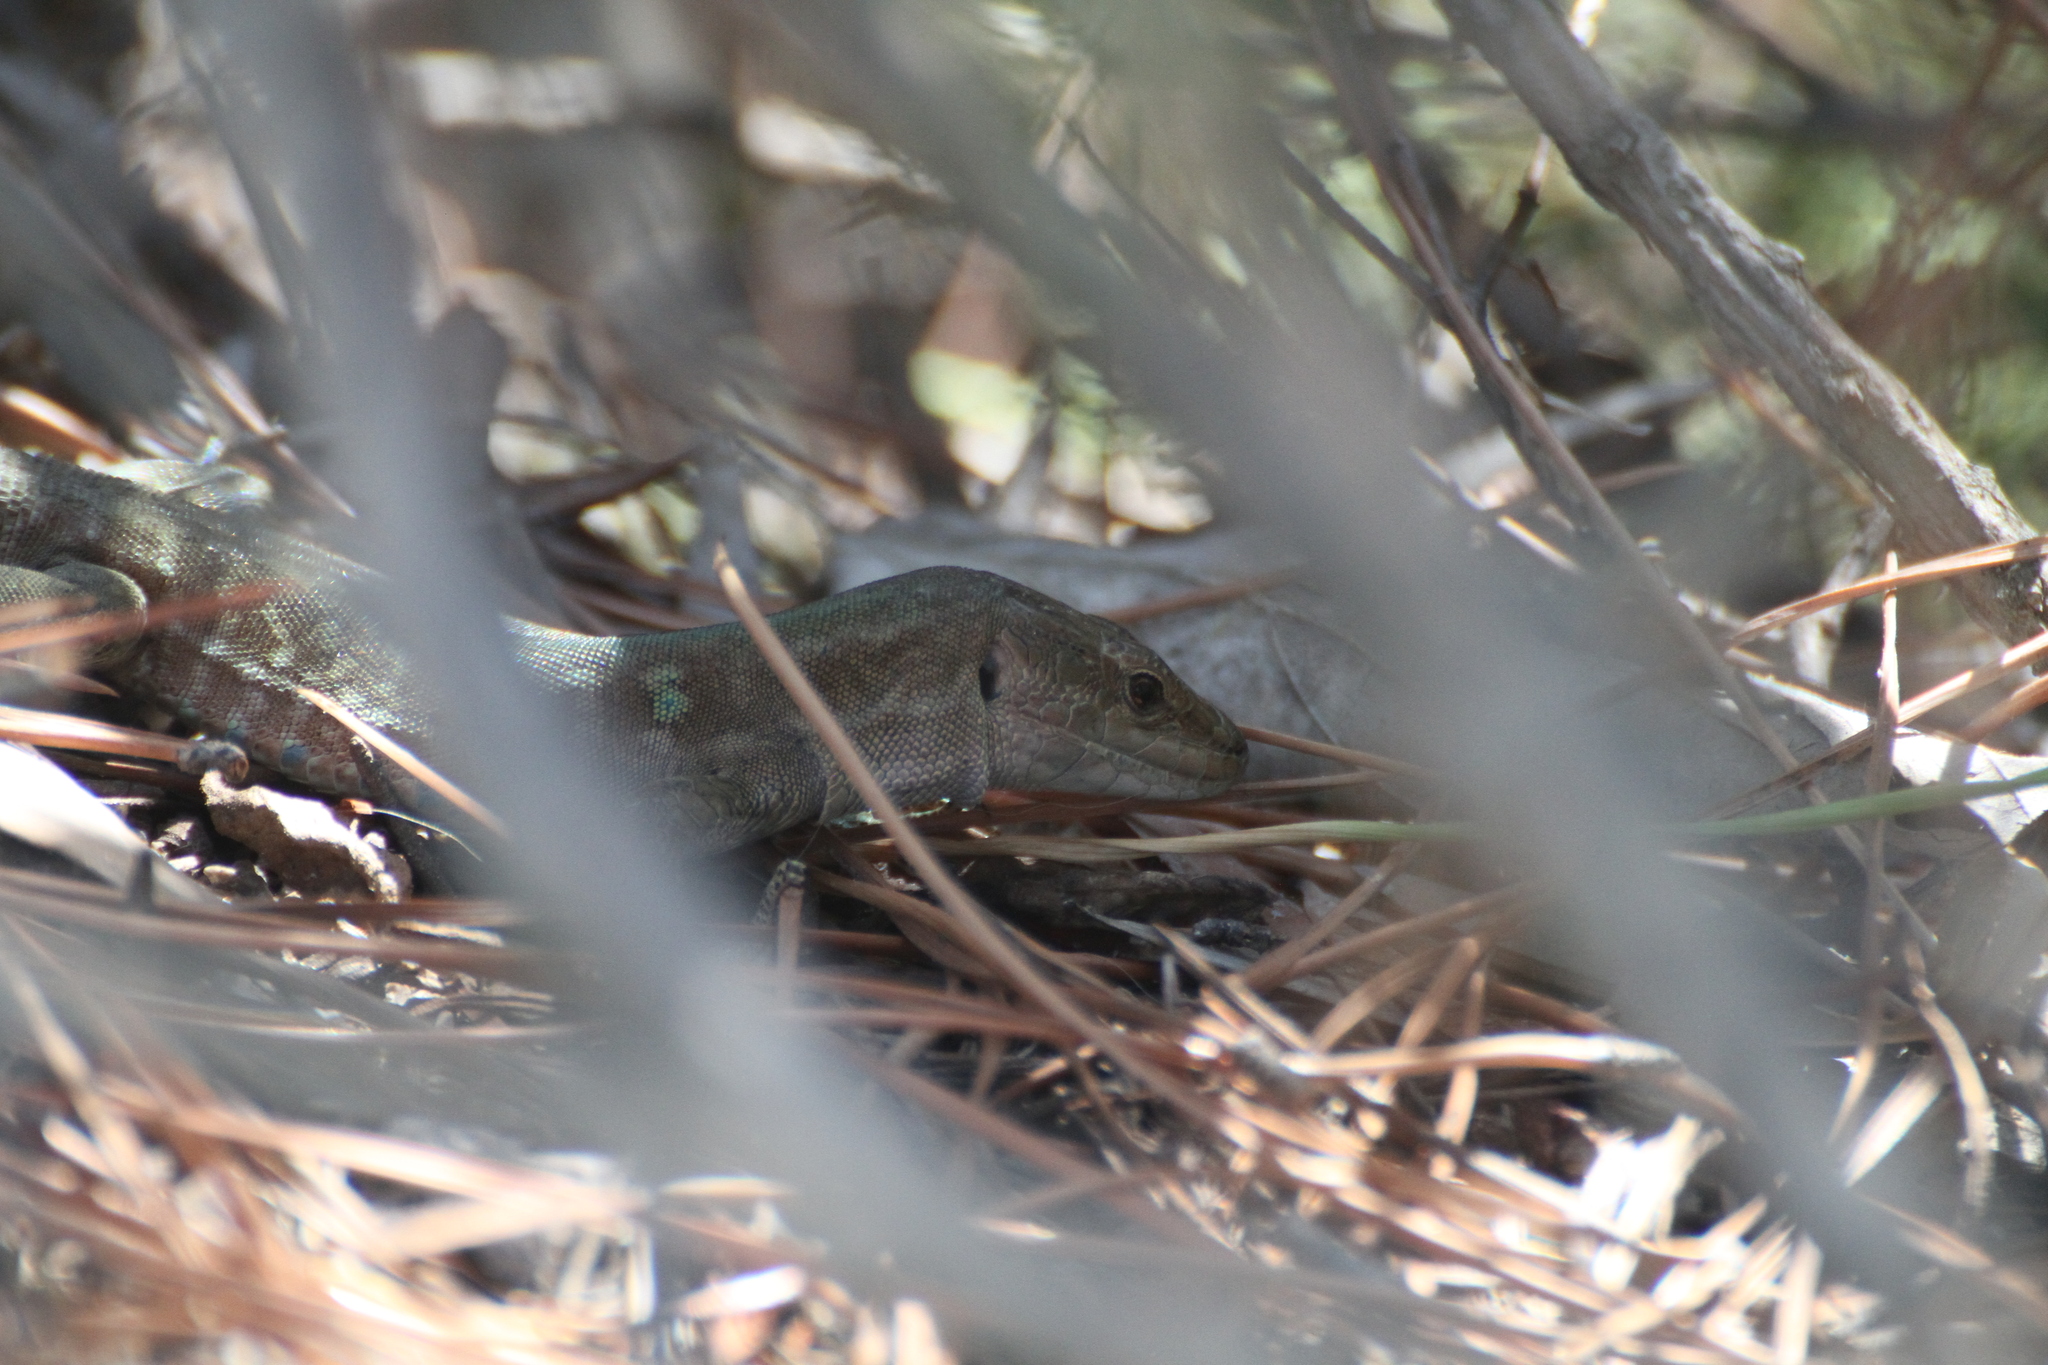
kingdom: Animalia
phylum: Chordata
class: Squamata
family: Lacertidae
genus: Podarcis
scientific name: Podarcis siculus
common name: Italian wall lizard
